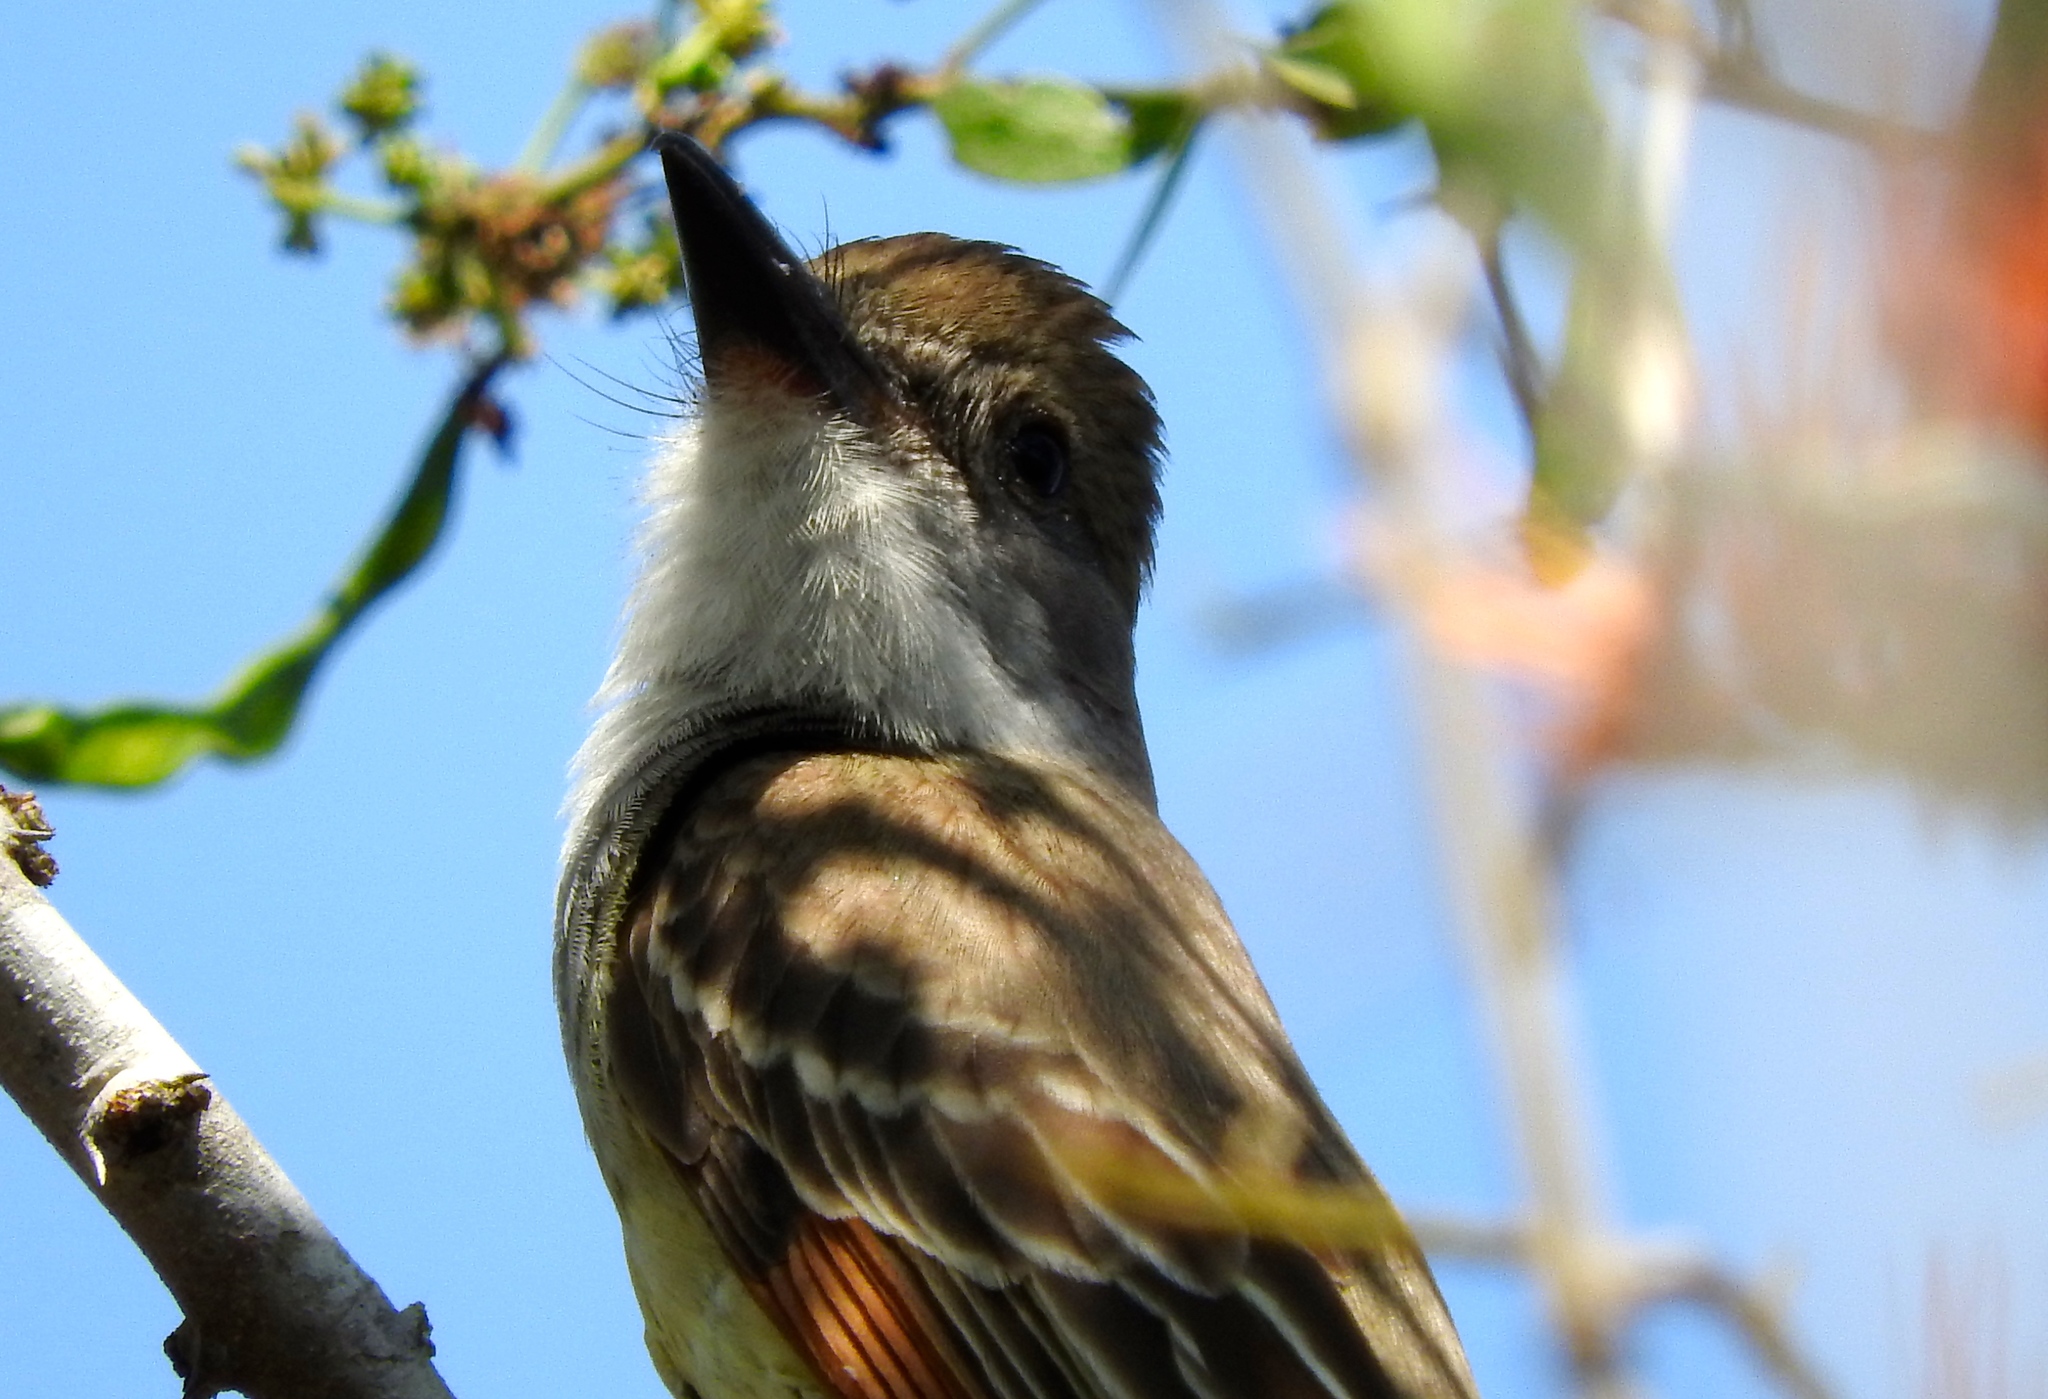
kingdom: Animalia
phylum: Chordata
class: Aves
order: Passeriformes
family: Tyrannidae
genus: Myiarchus
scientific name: Myiarchus
